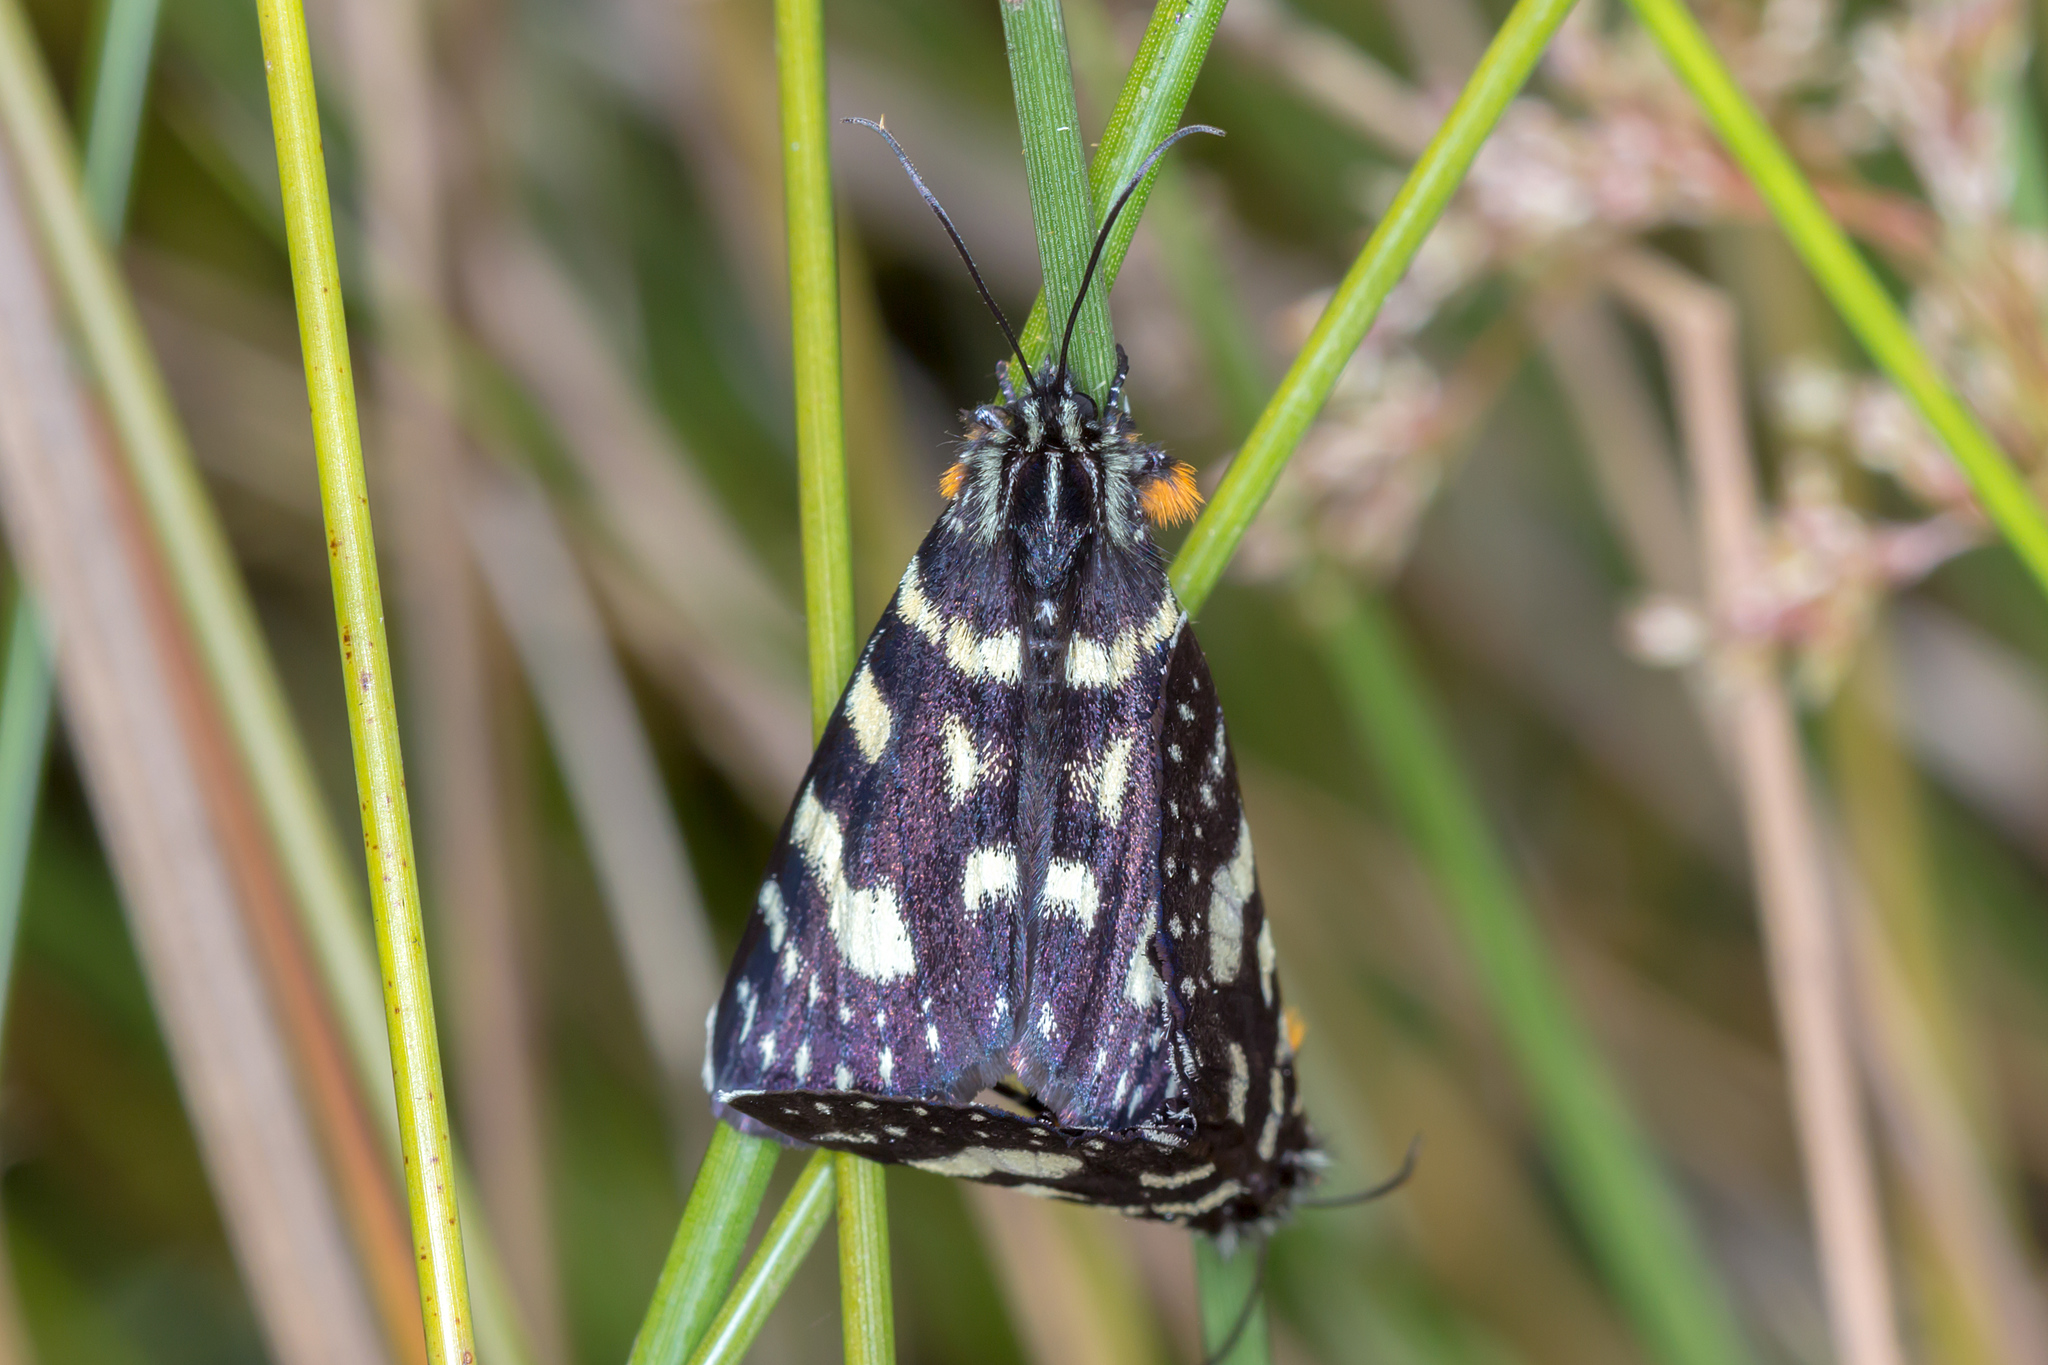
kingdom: Animalia
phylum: Arthropoda
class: Insecta
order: Lepidoptera
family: Noctuidae
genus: Phalaenoides
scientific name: Phalaenoides tristifica
